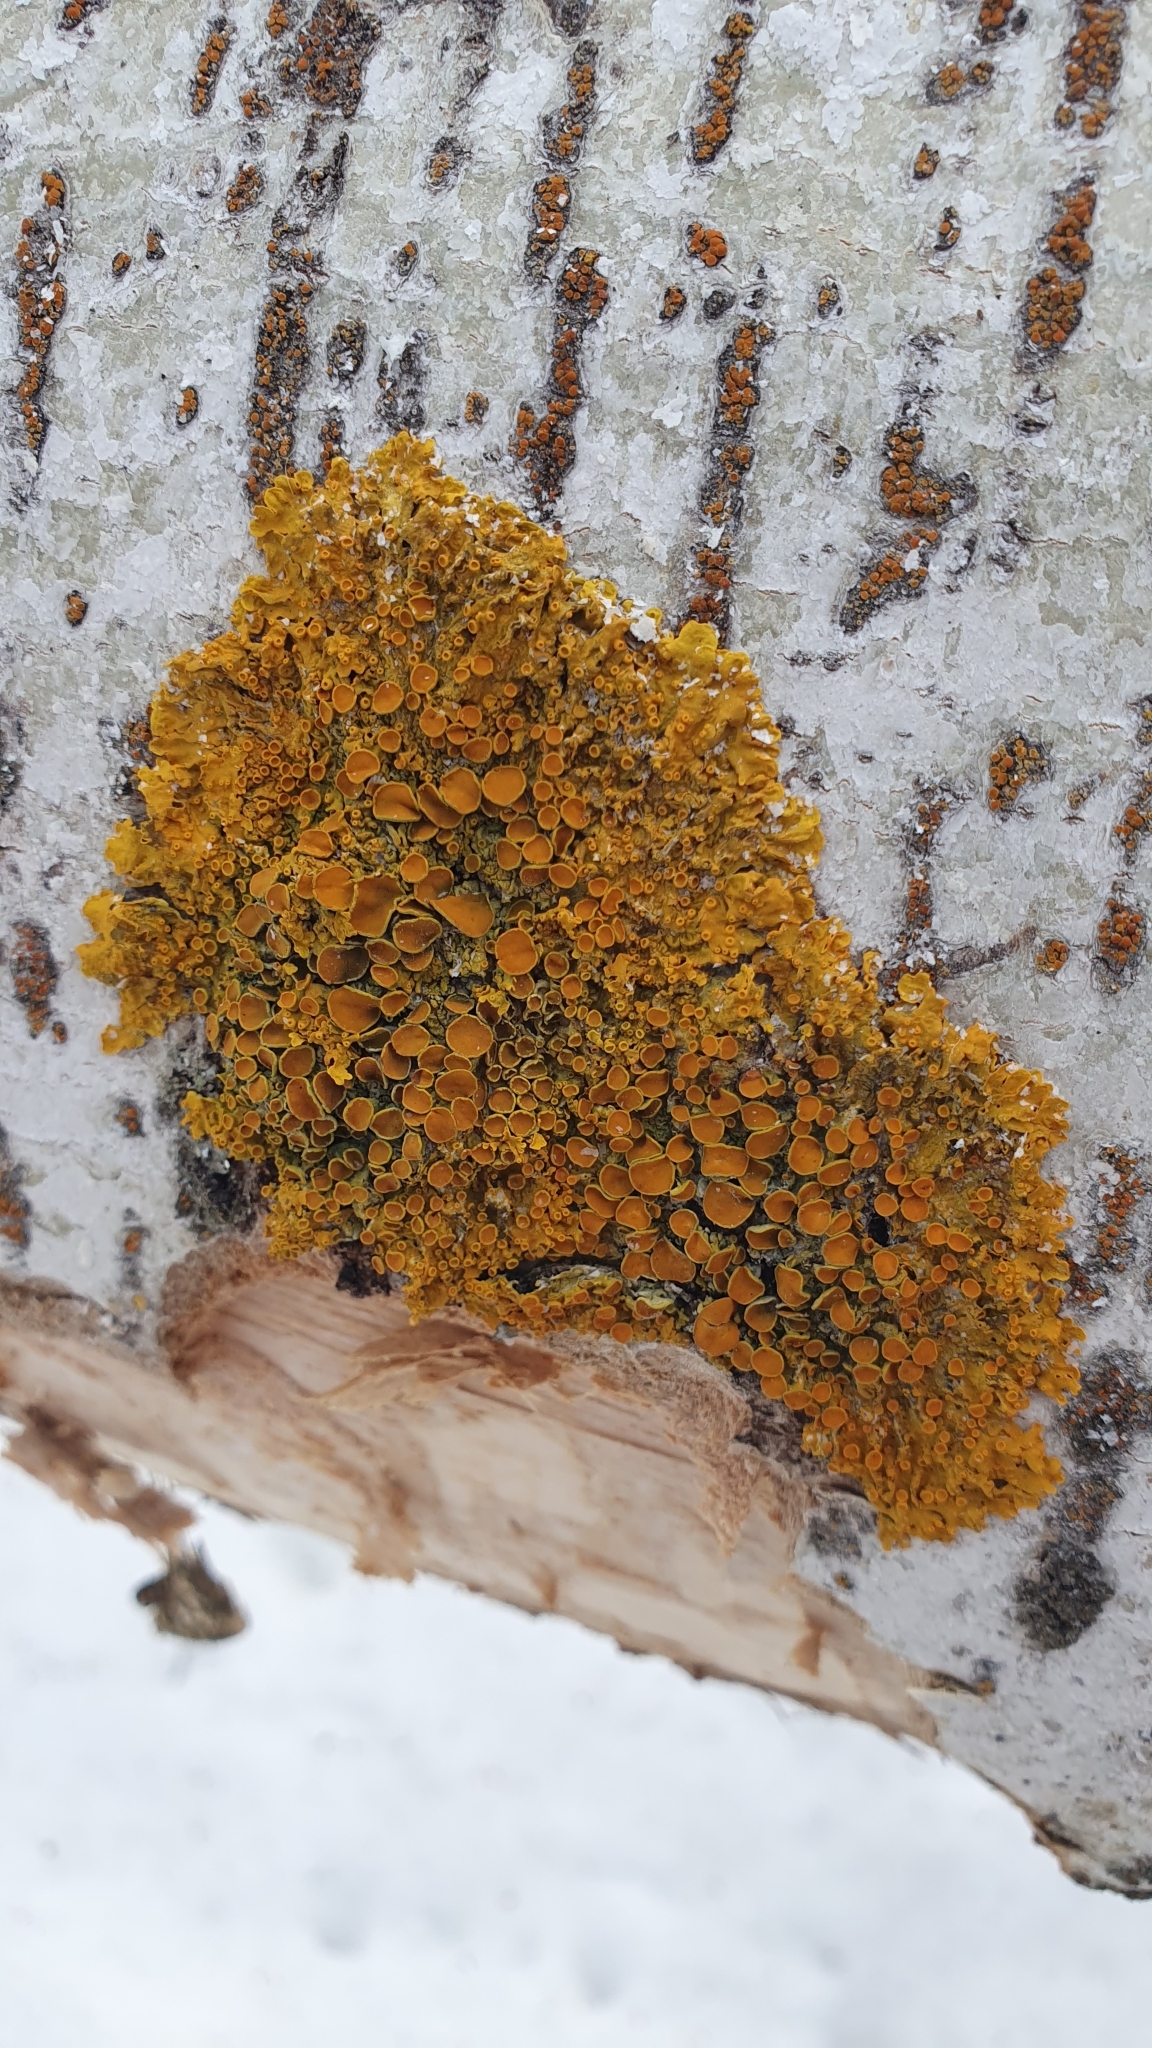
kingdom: Fungi
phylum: Ascomycota
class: Lecanoromycetes
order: Teloschistales
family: Teloschistaceae
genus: Xanthoria
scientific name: Xanthoria parietina
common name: Common orange lichen
